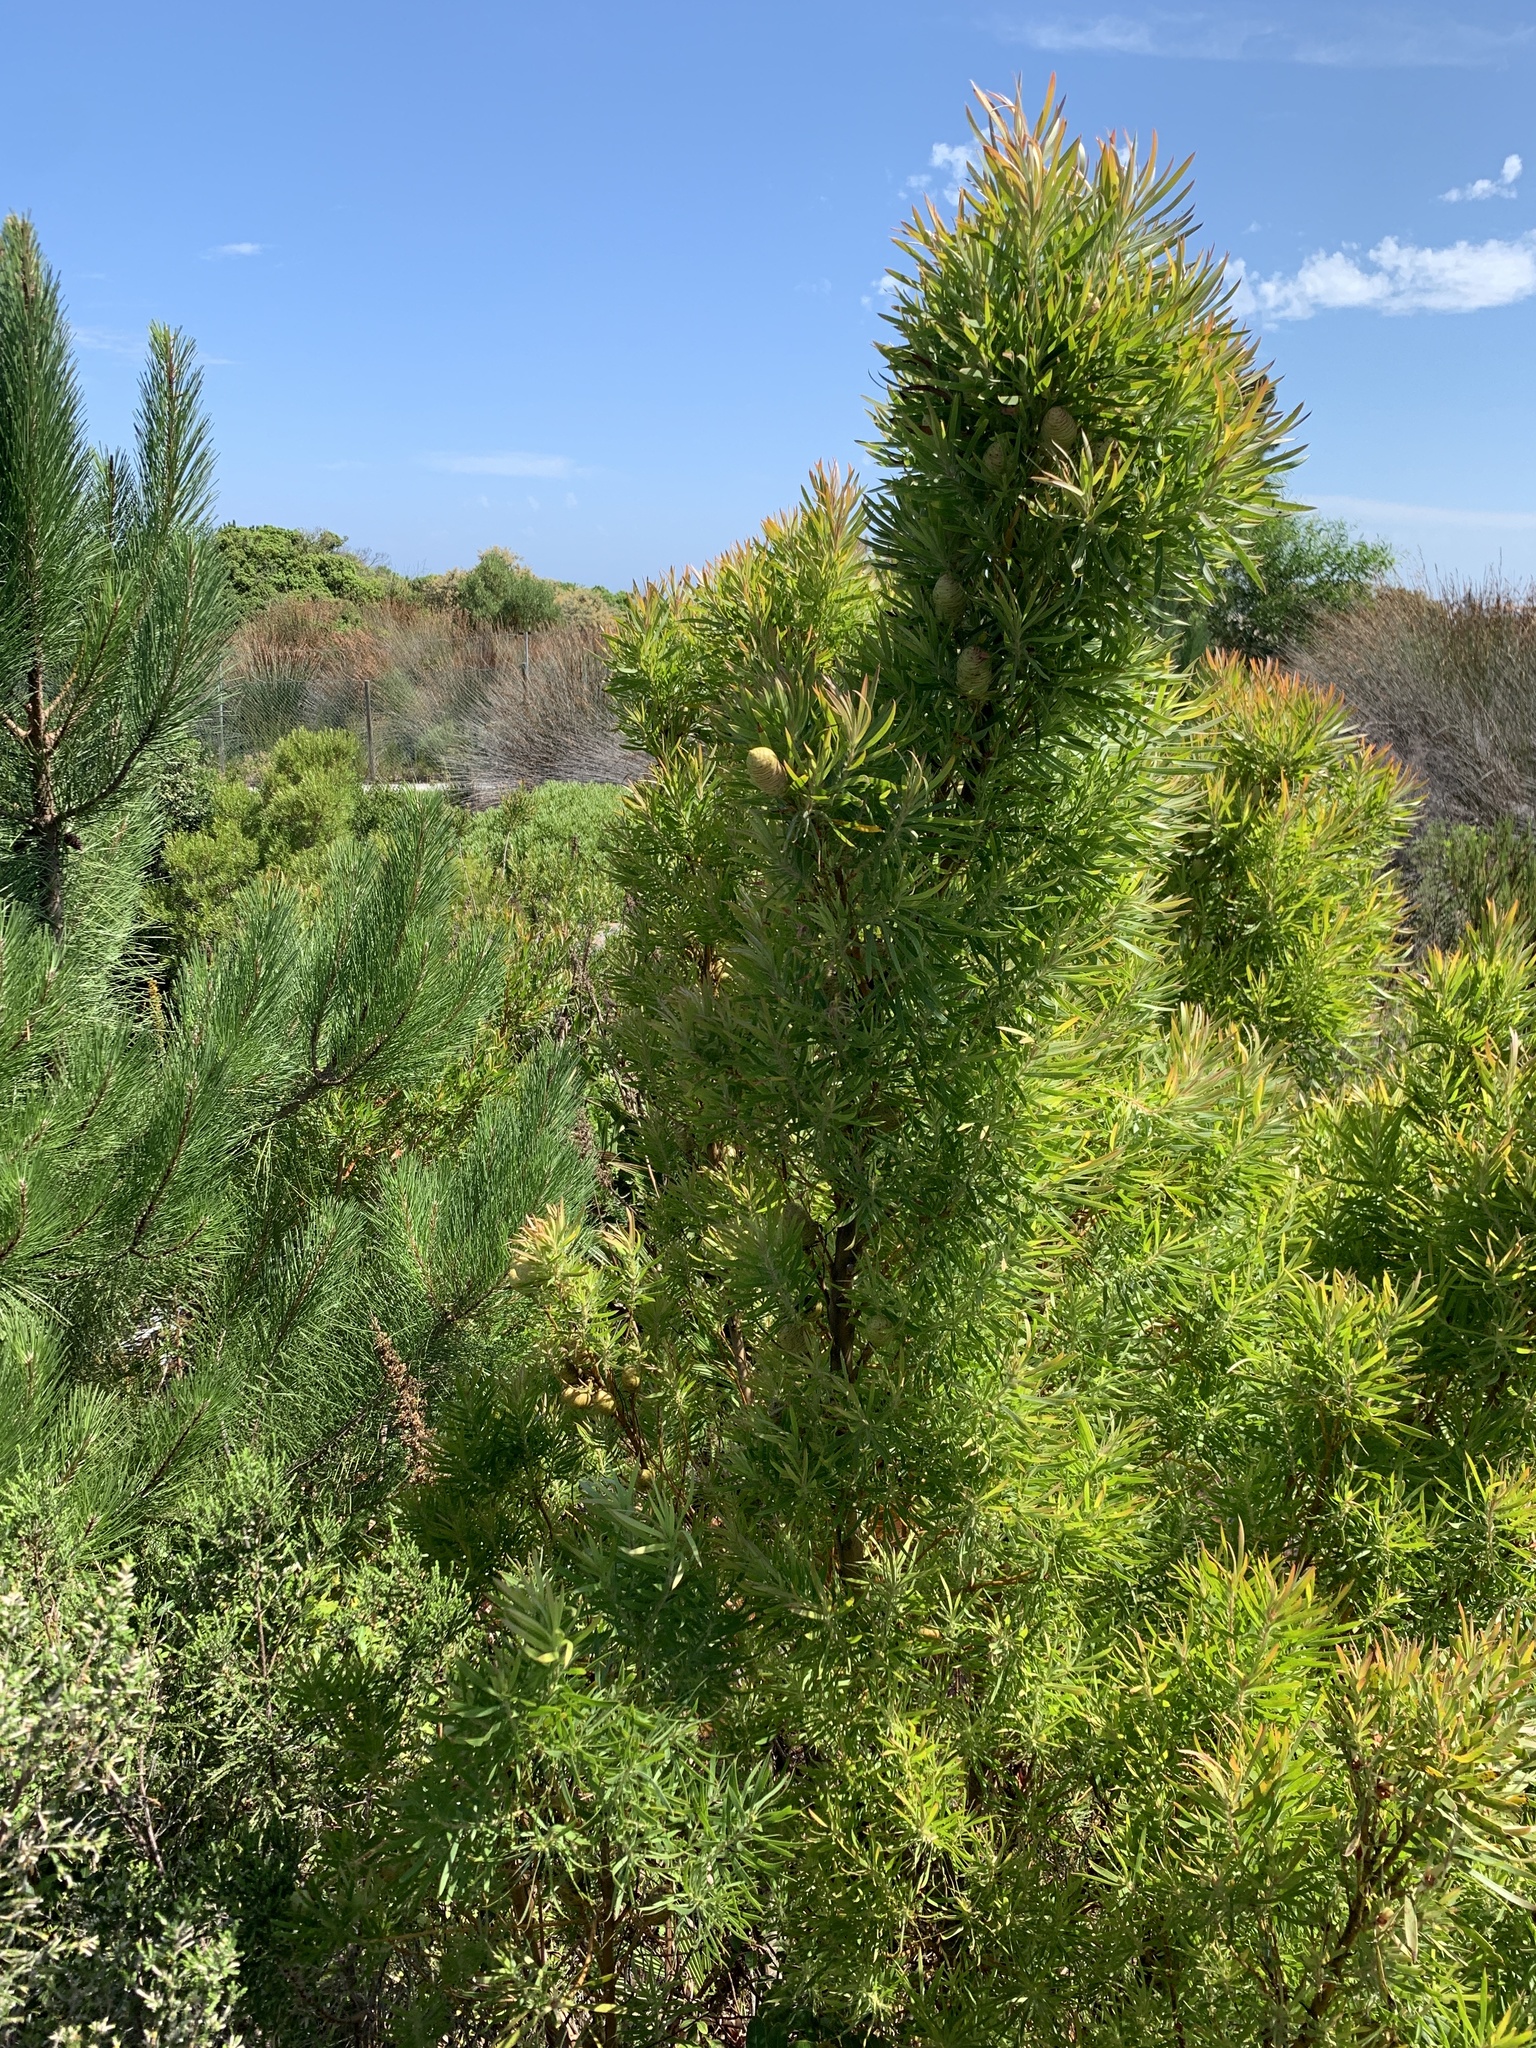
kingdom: Plantae
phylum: Tracheophyta
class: Magnoliopsida
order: Proteales
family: Proteaceae
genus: Leucadendron
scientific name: Leucadendron salicifolium
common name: Common stream conebush
